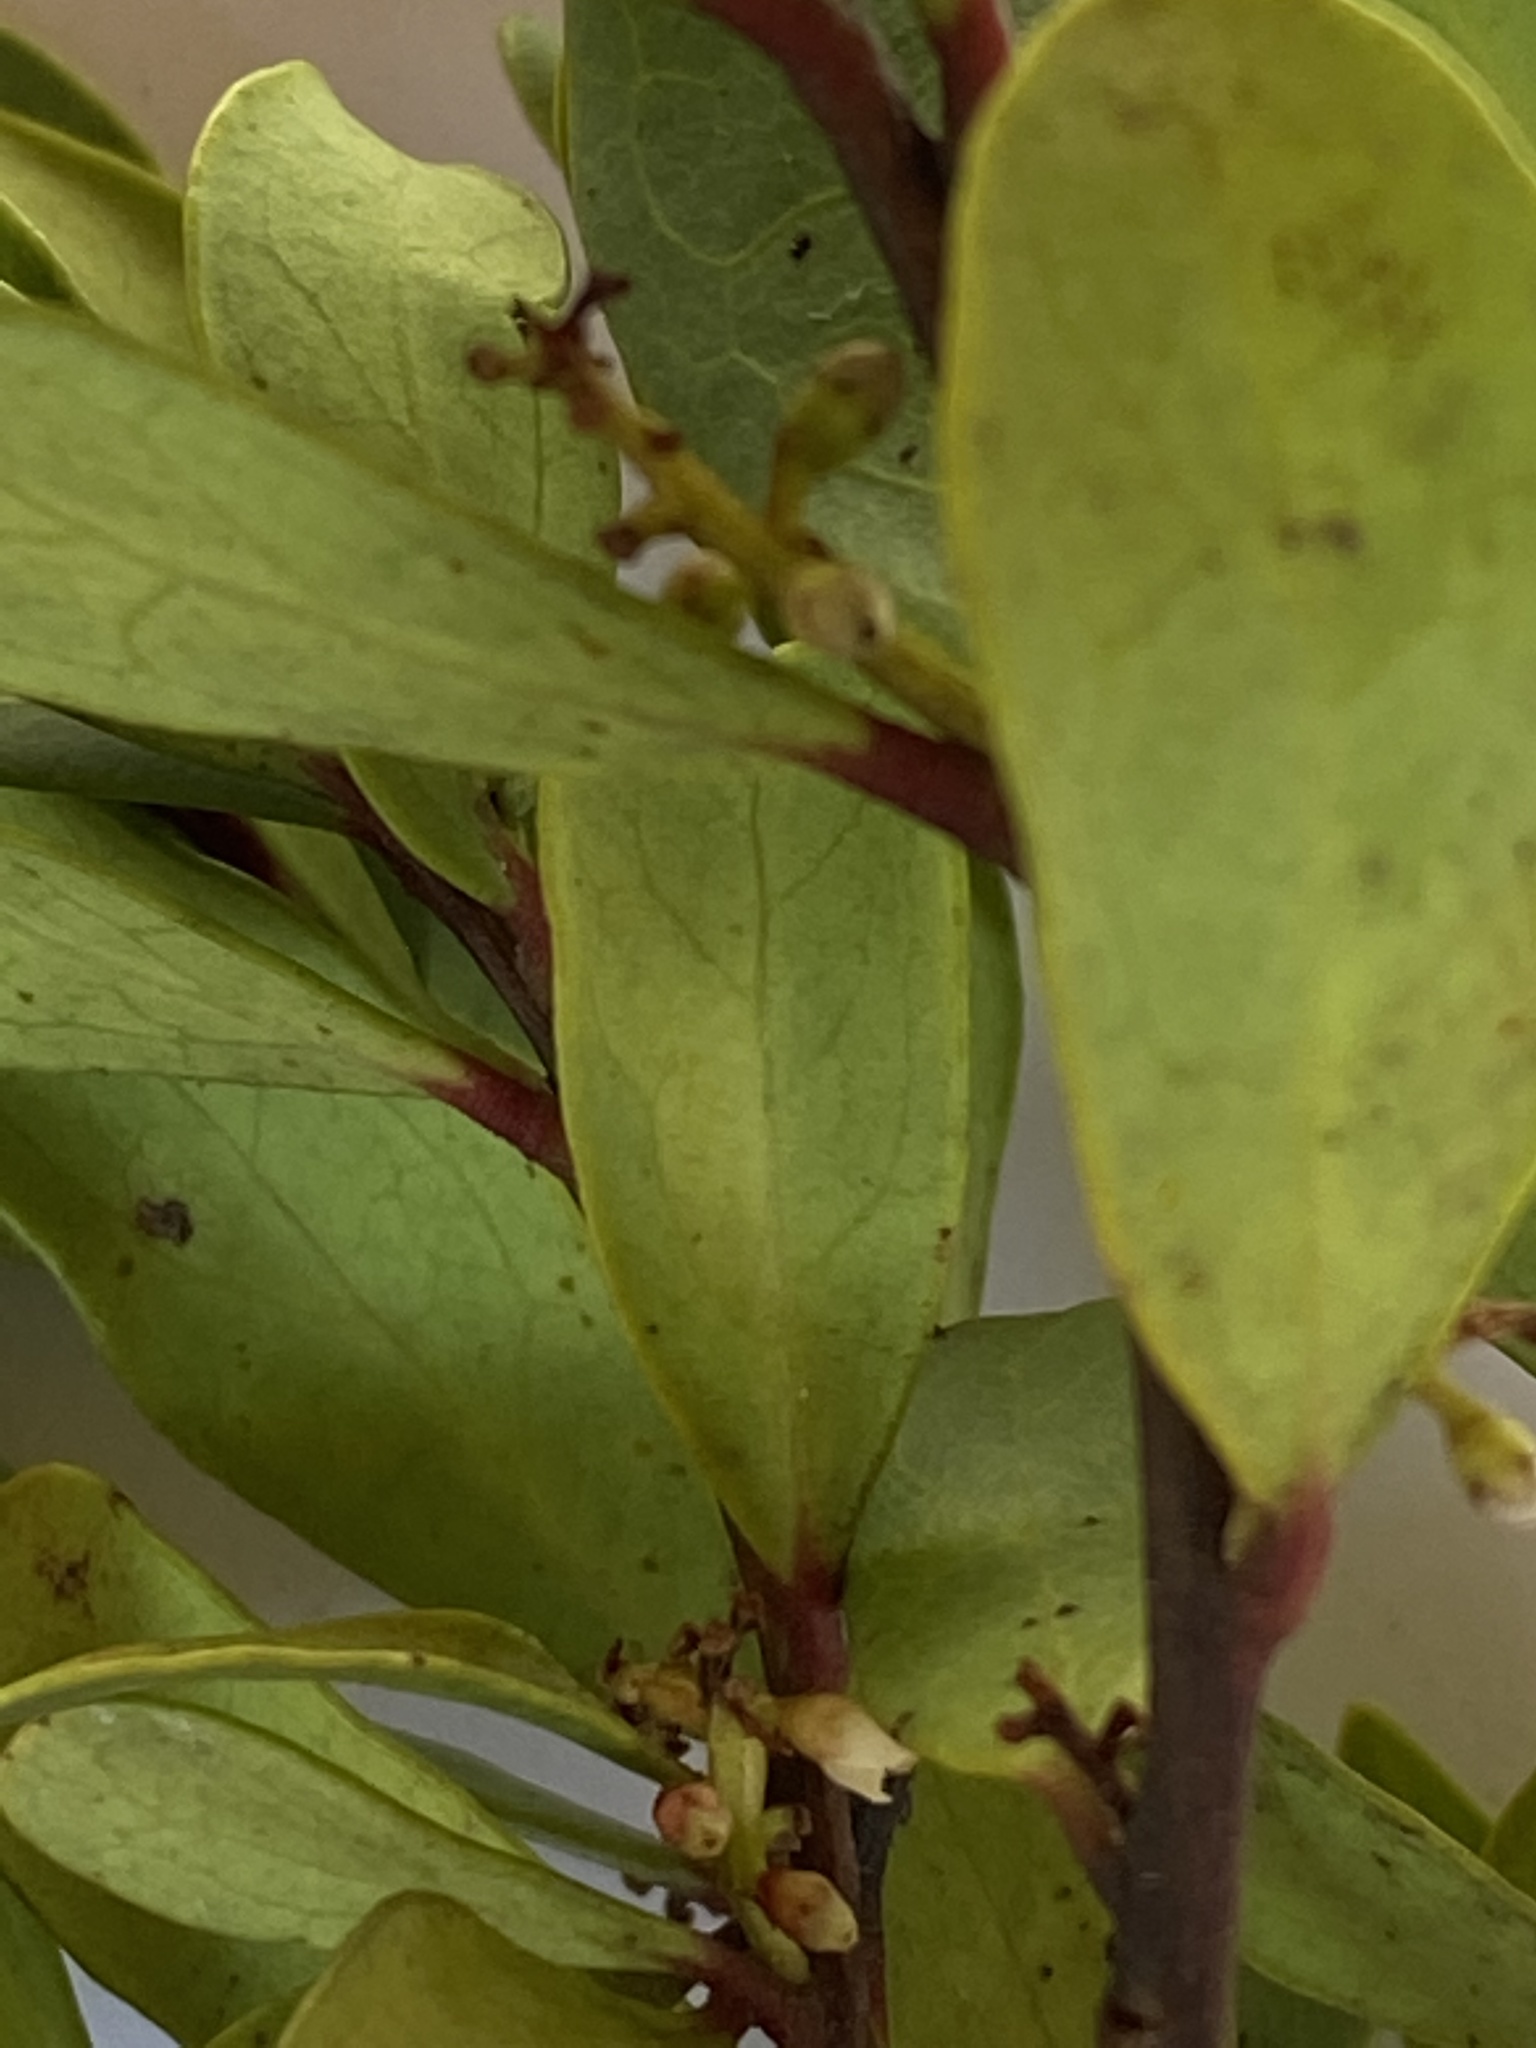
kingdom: Plantae
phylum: Tracheophyta
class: Magnoliopsida
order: Ericales
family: Ebenaceae
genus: Euclea
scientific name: Euclea racemosa
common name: Dune guarri
